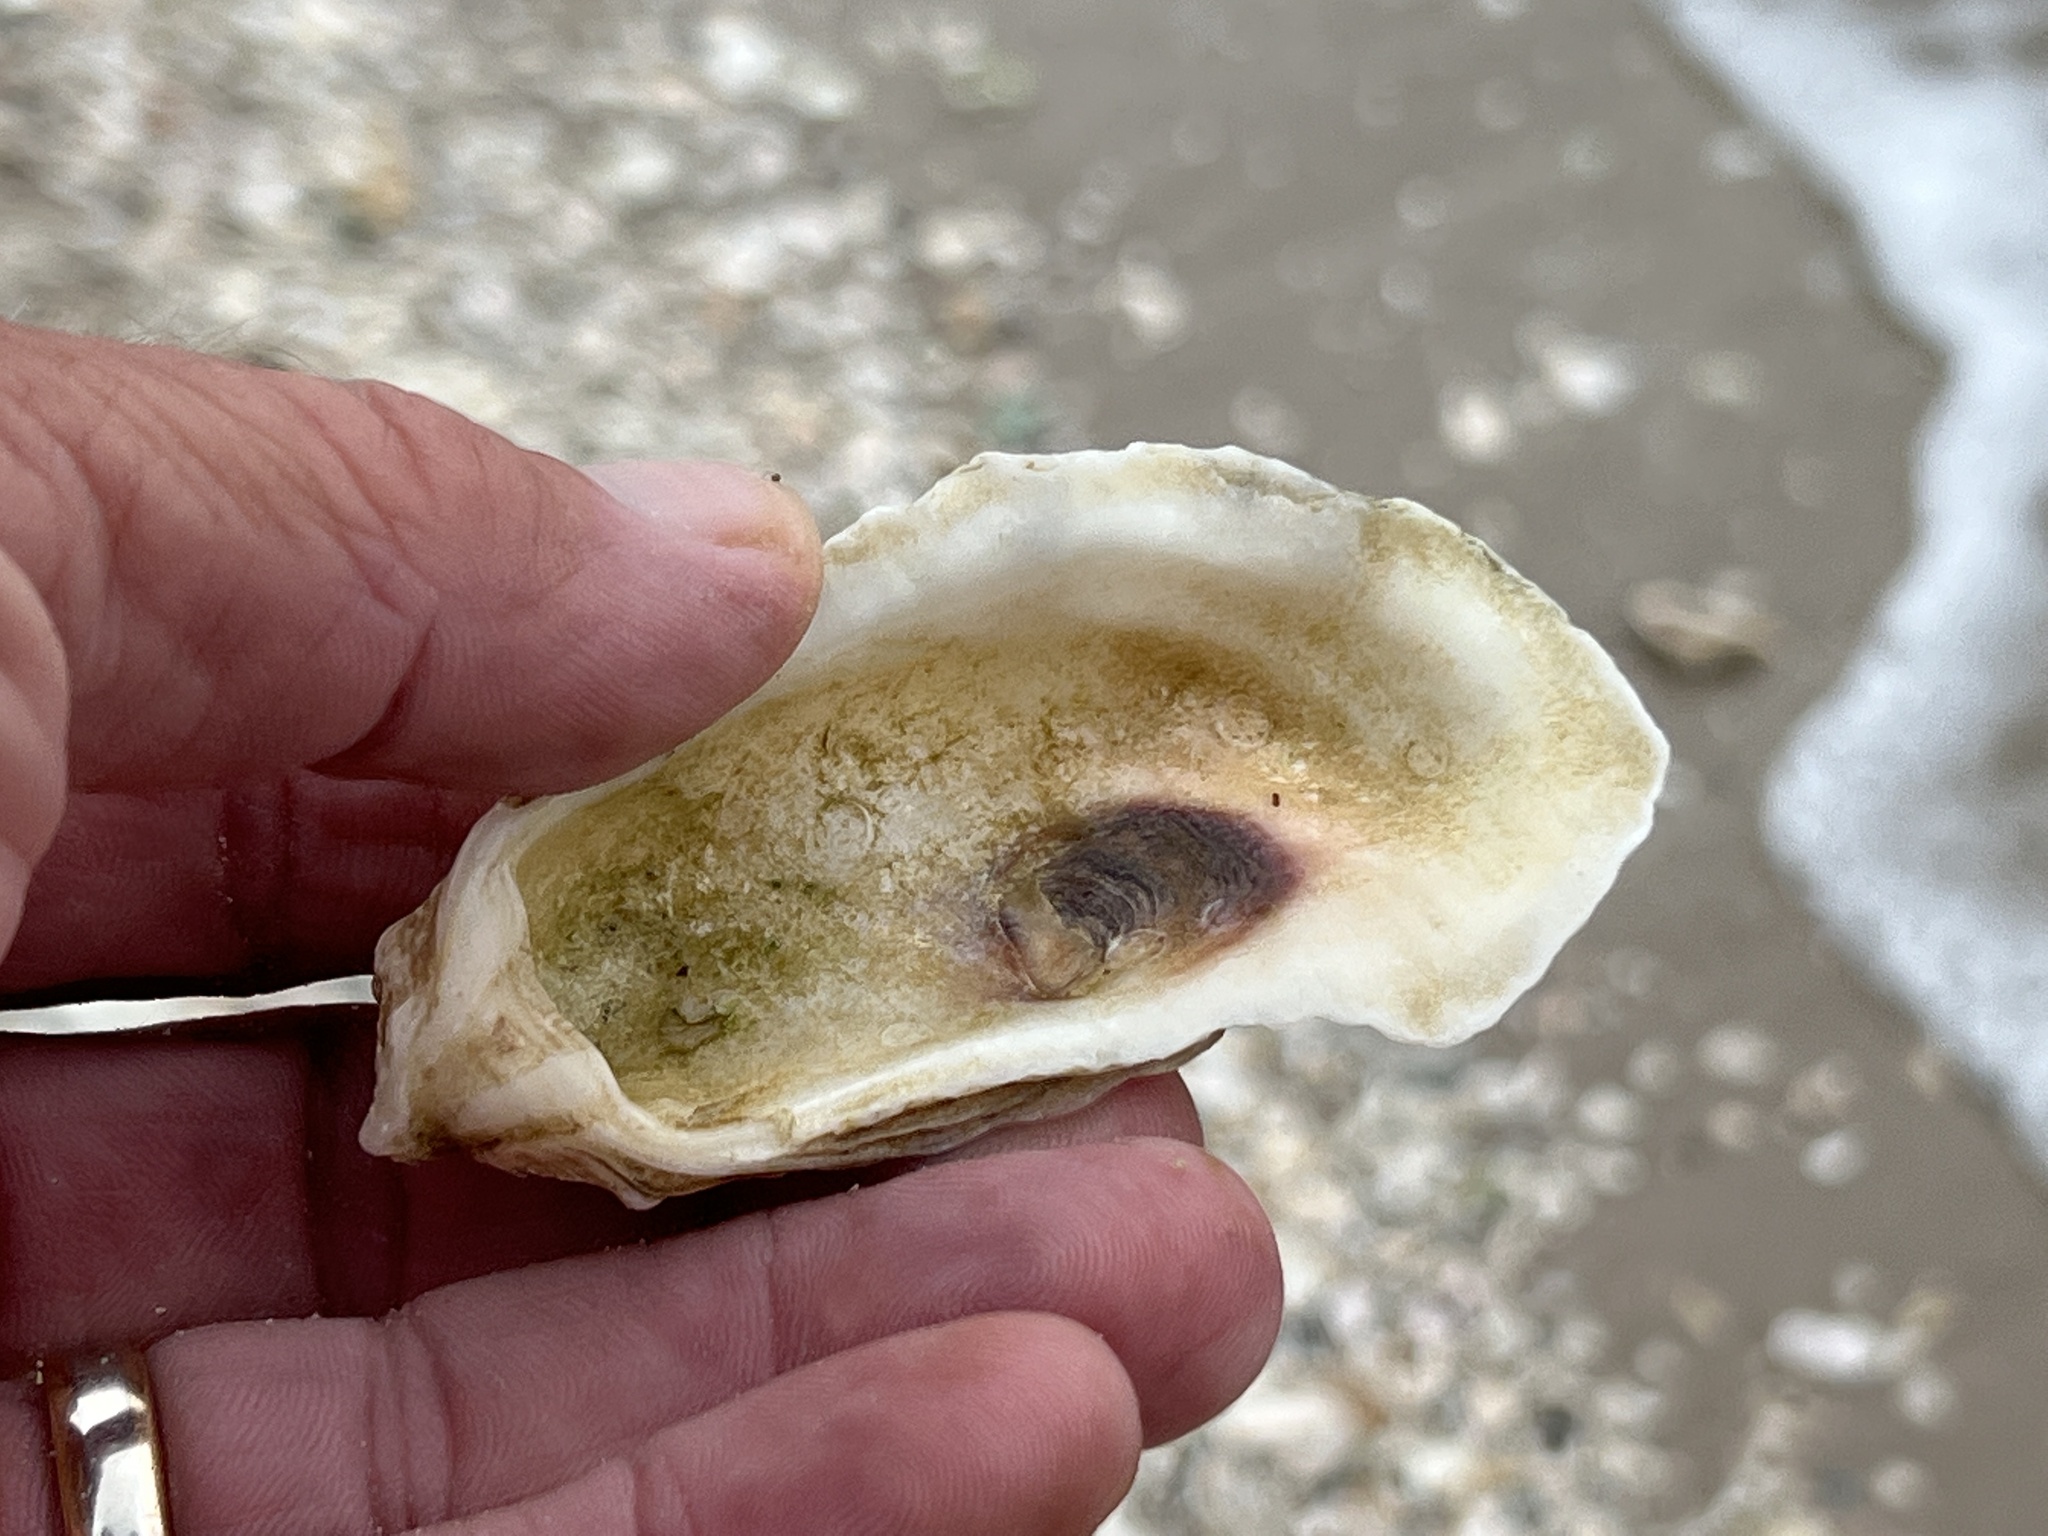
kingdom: Animalia
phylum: Mollusca
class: Bivalvia
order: Ostreida
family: Ostreidae
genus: Crassostrea
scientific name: Crassostrea virginica
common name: American oyster
